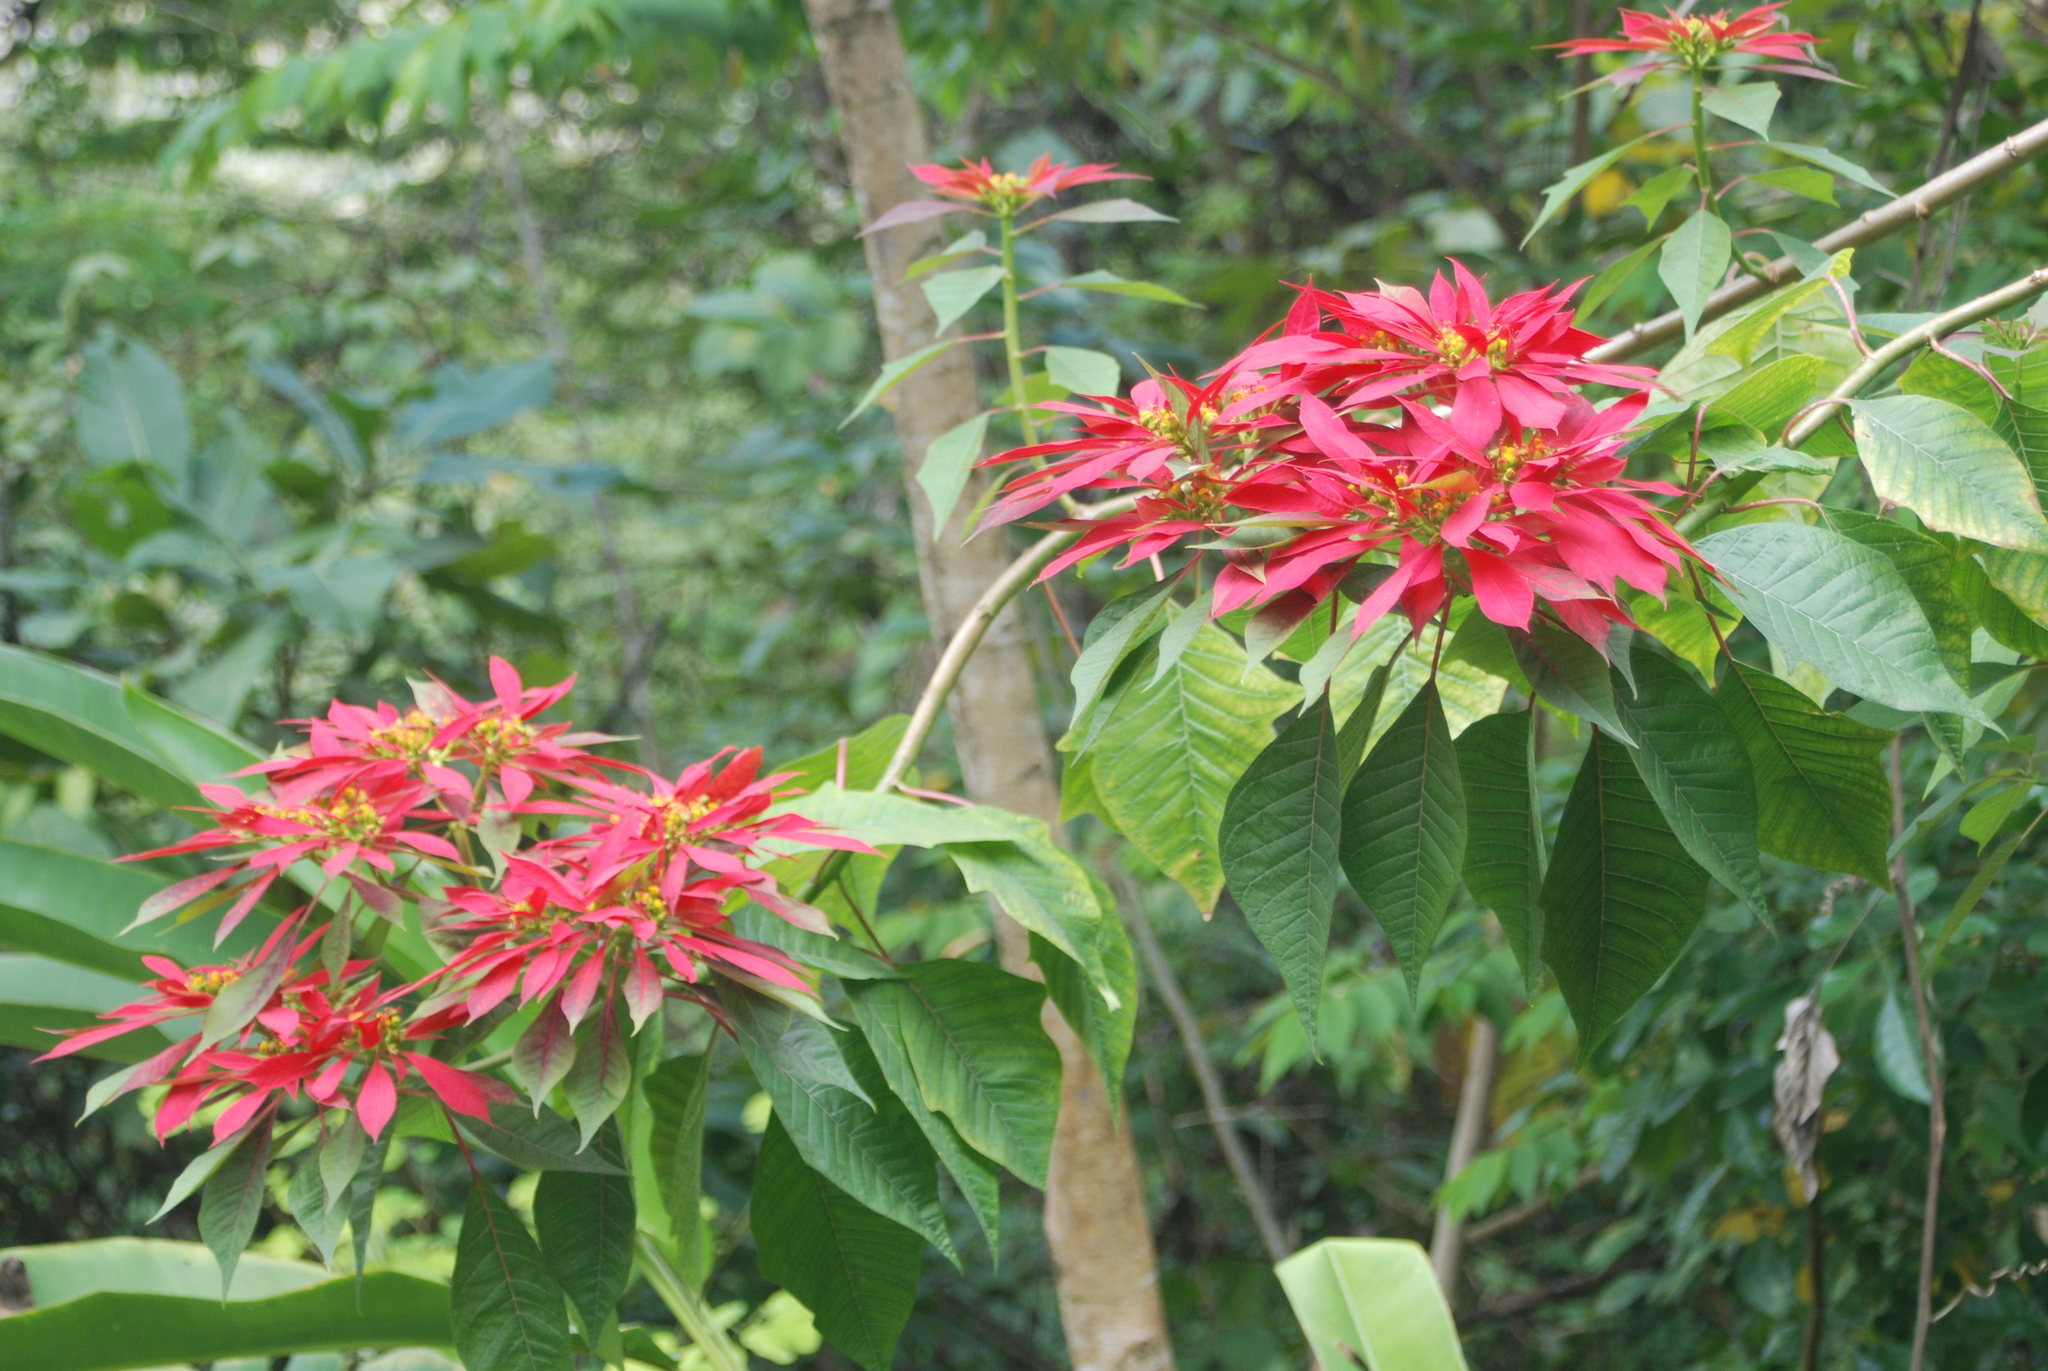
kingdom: Plantae
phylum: Tracheophyta
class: Magnoliopsida
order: Malpighiales
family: Euphorbiaceae
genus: Euphorbia
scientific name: Euphorbia pulcherrima
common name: Christmas-flower
